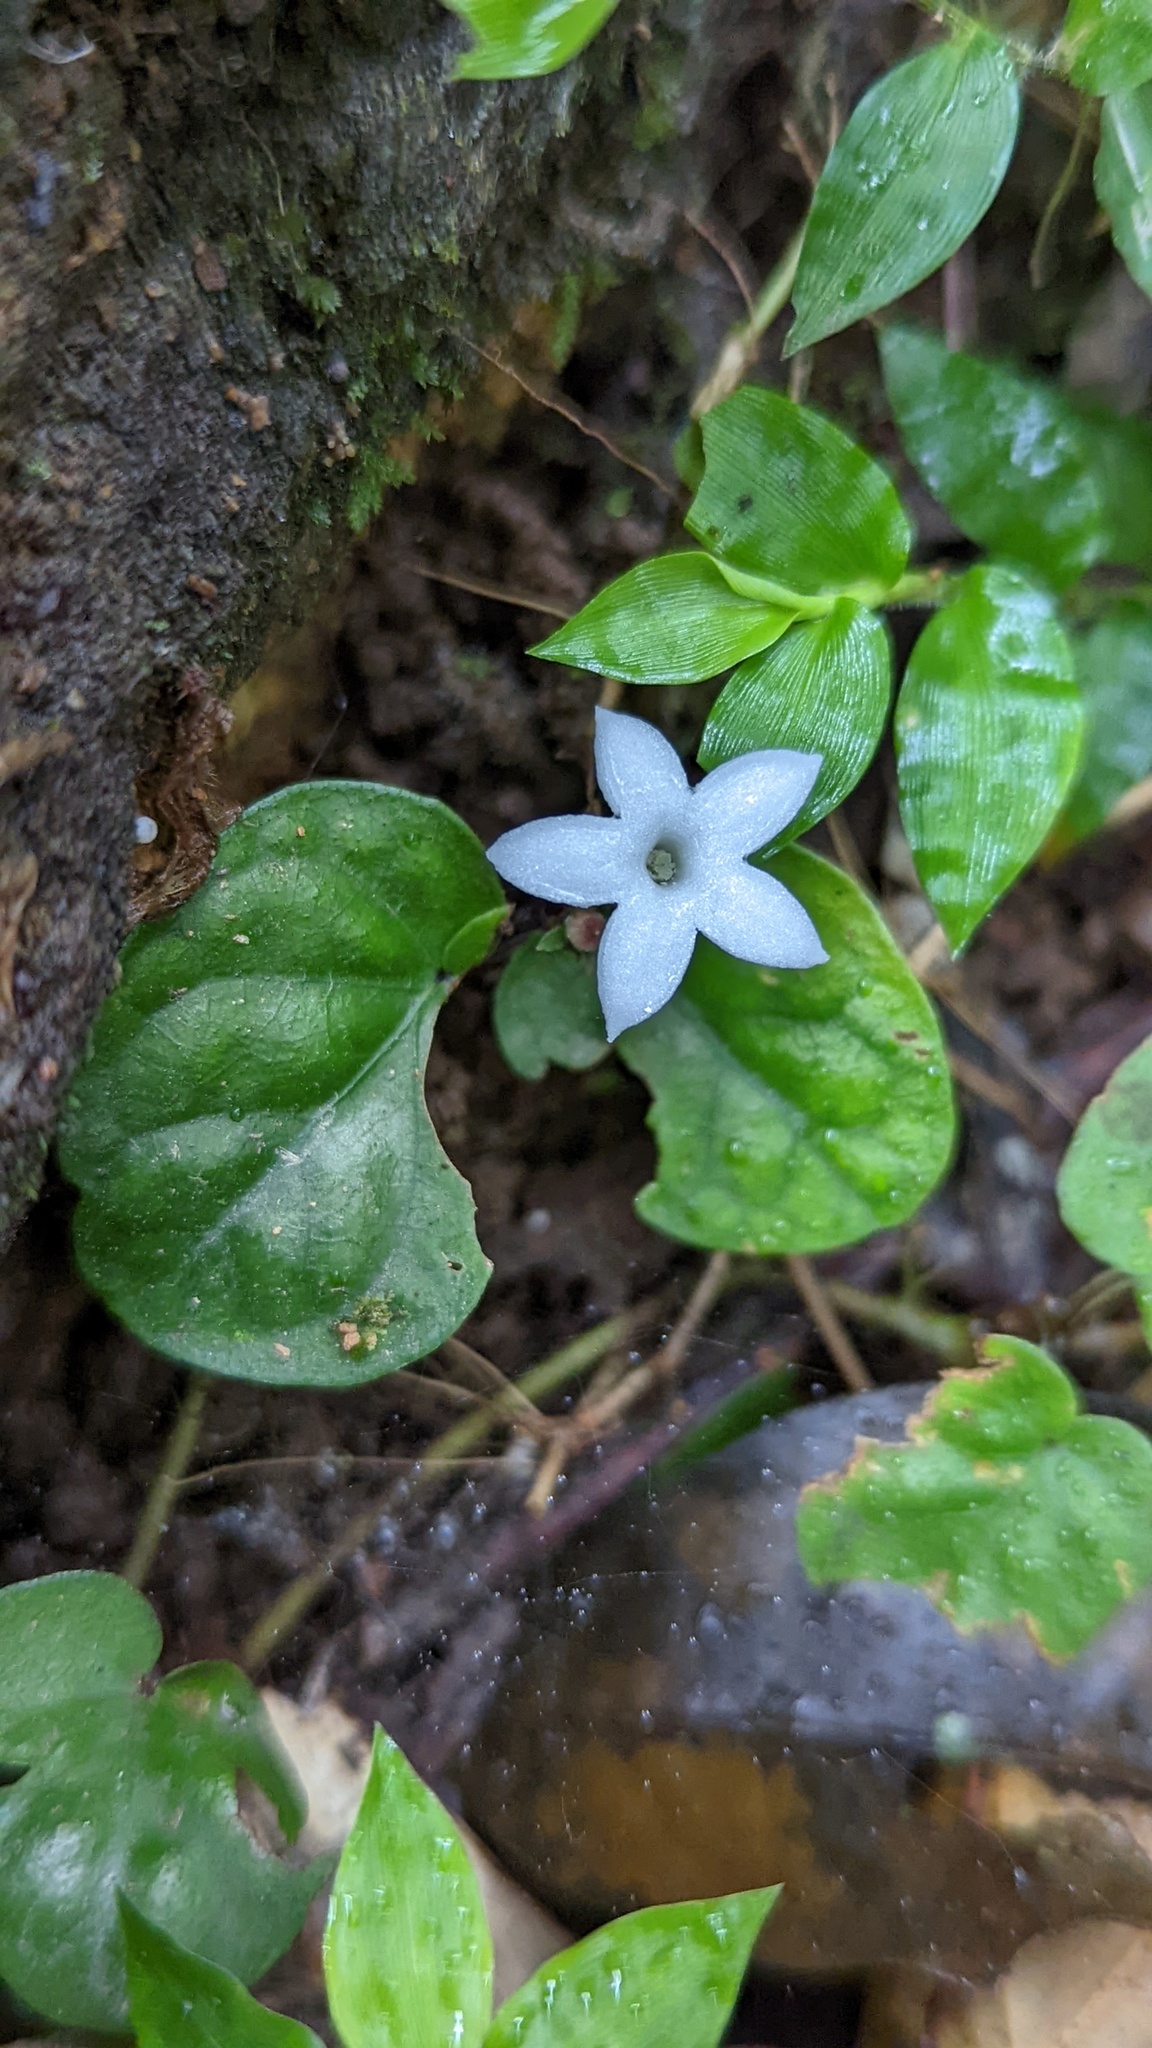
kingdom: Plantae
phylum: Tracheophyta
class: Magnoliopsida
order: Gentianales
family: Rubiaceae
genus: Geophila
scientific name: Geophila
